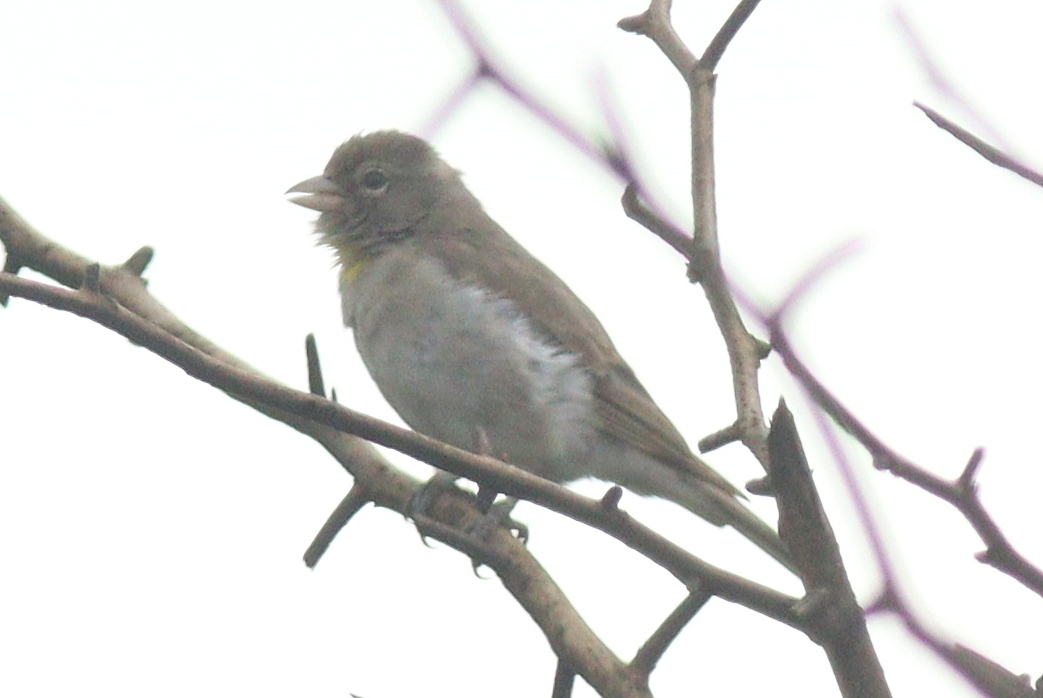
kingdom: Animalia
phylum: Chordata
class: Aves
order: Passeriformes
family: Passeridae
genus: Gymnoris
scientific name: Gymnoris pyrgita
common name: Yellow-spotted petronia
